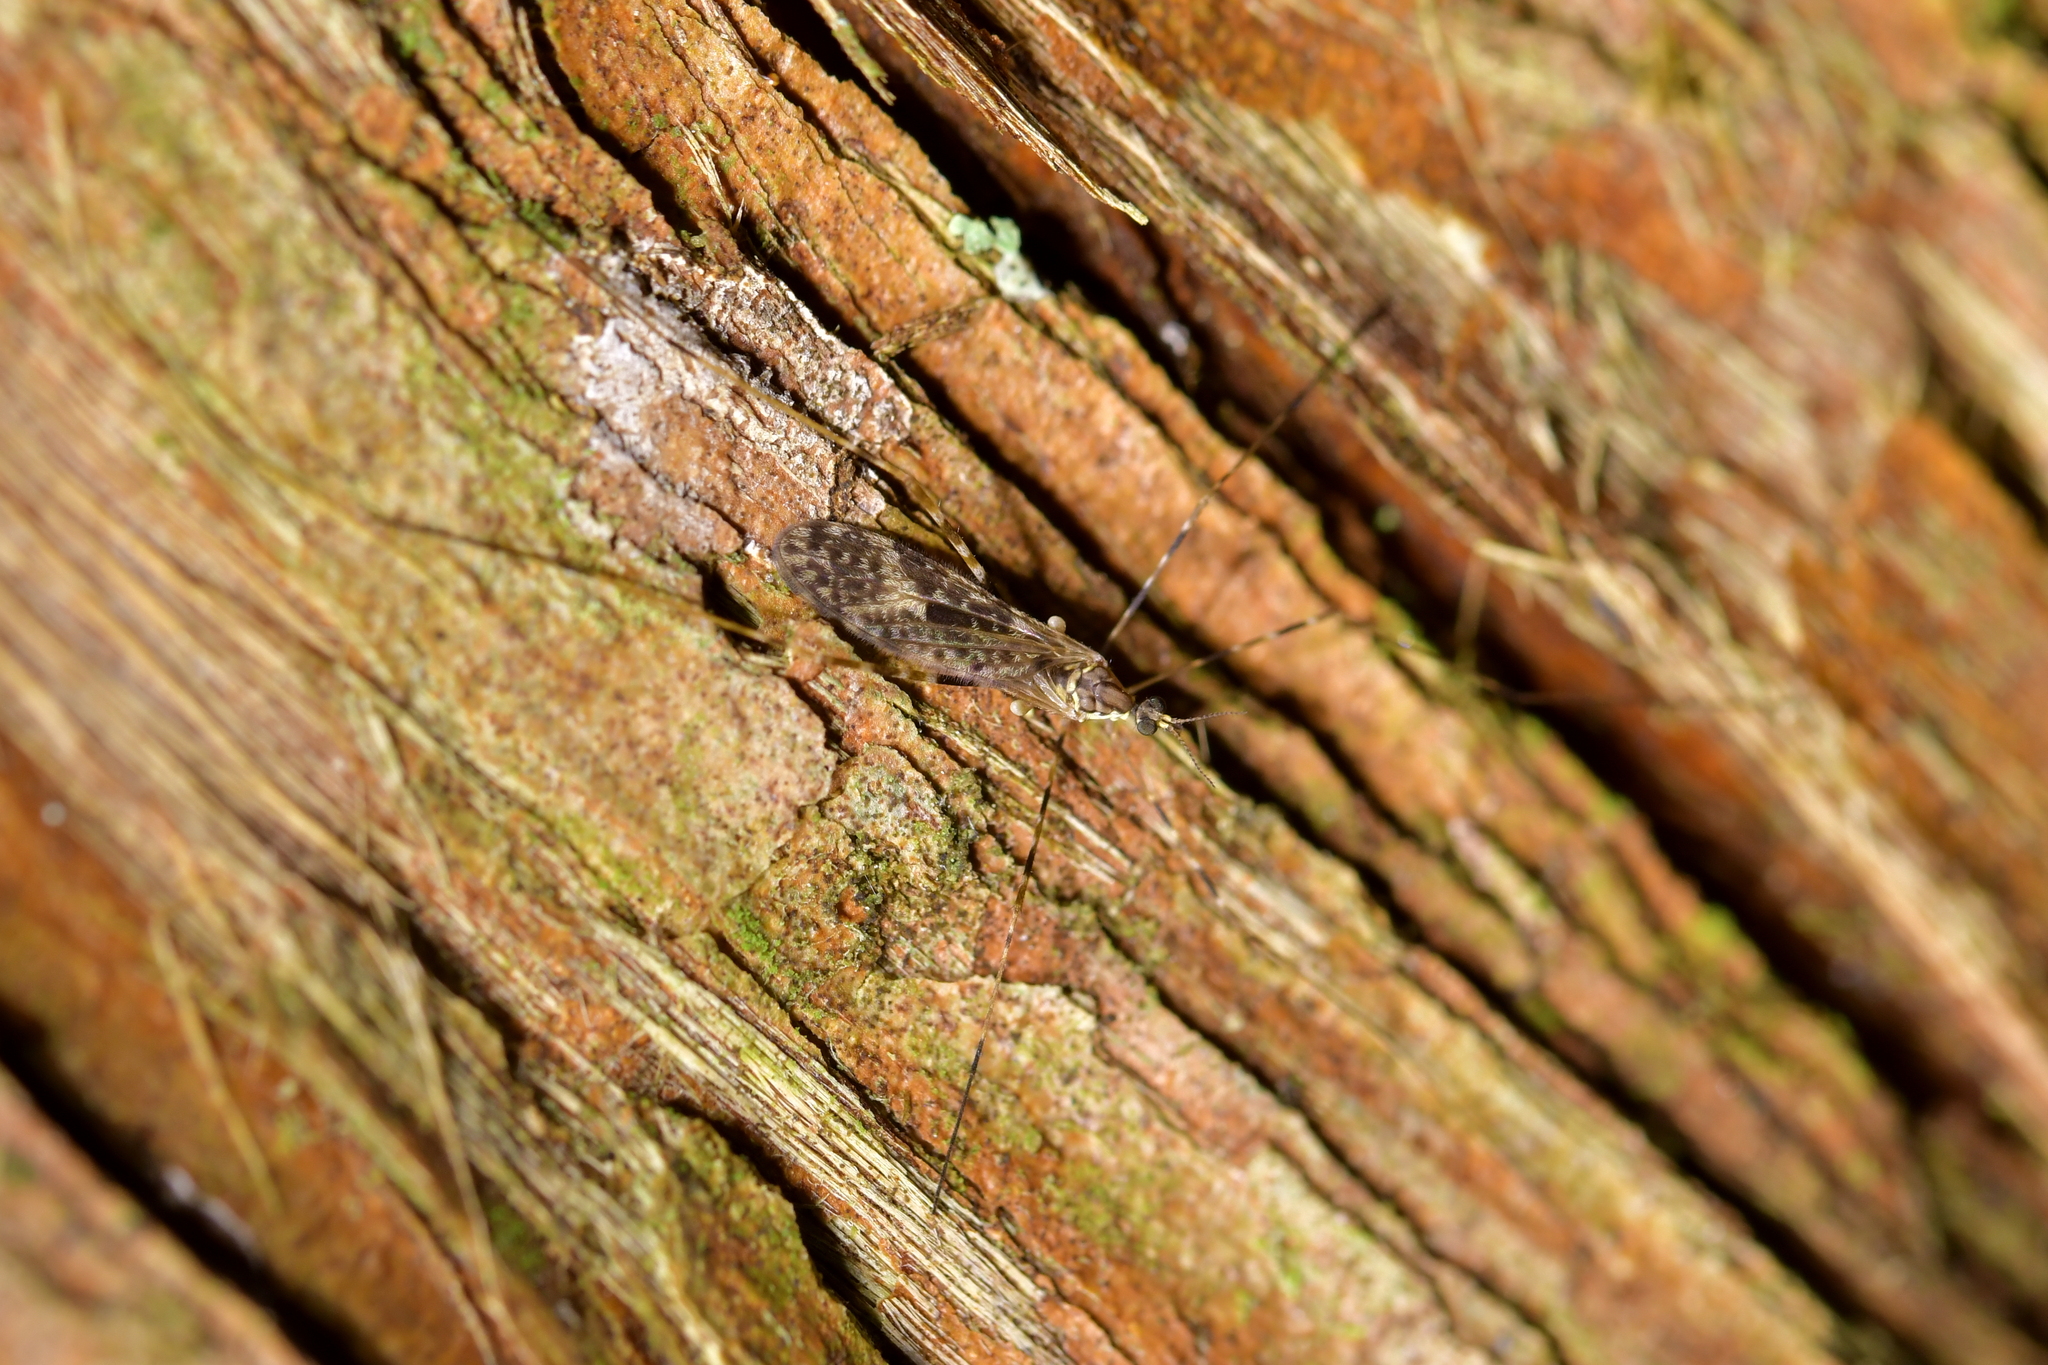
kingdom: Animalia
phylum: Arthropoda
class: Insecta
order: Diptera
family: Limoniidae
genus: Amphineurus
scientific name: Amphineurus hudsoni
